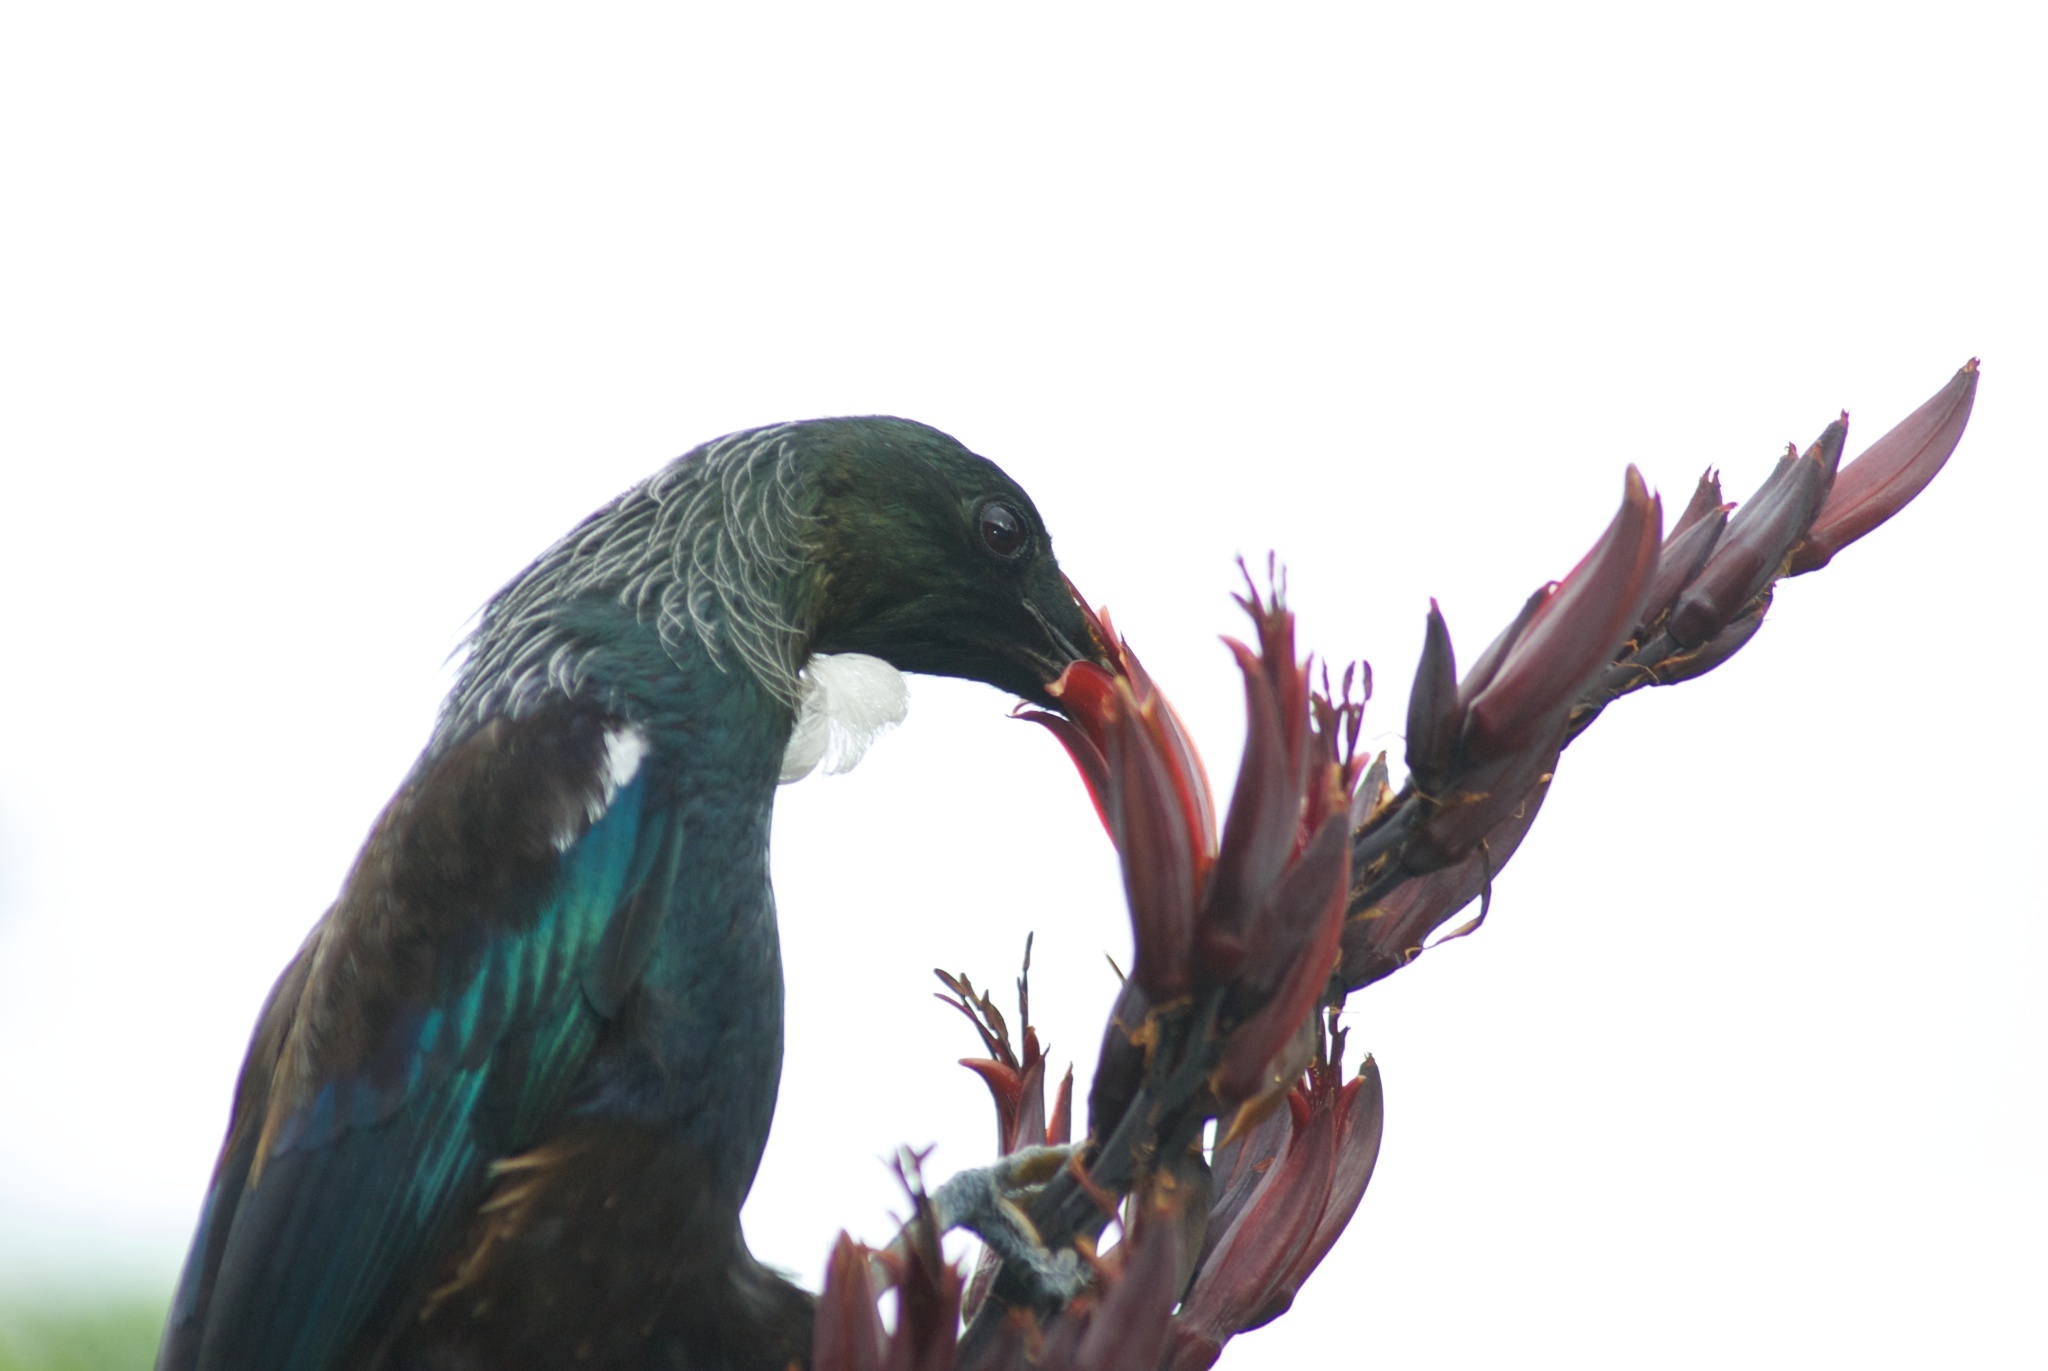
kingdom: Animalia
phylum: Chordata
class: Aves
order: Passeriformes
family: Meliphagidae
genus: Prosthemadera
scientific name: Prosthemadera novaeseelandiae
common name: Tui
